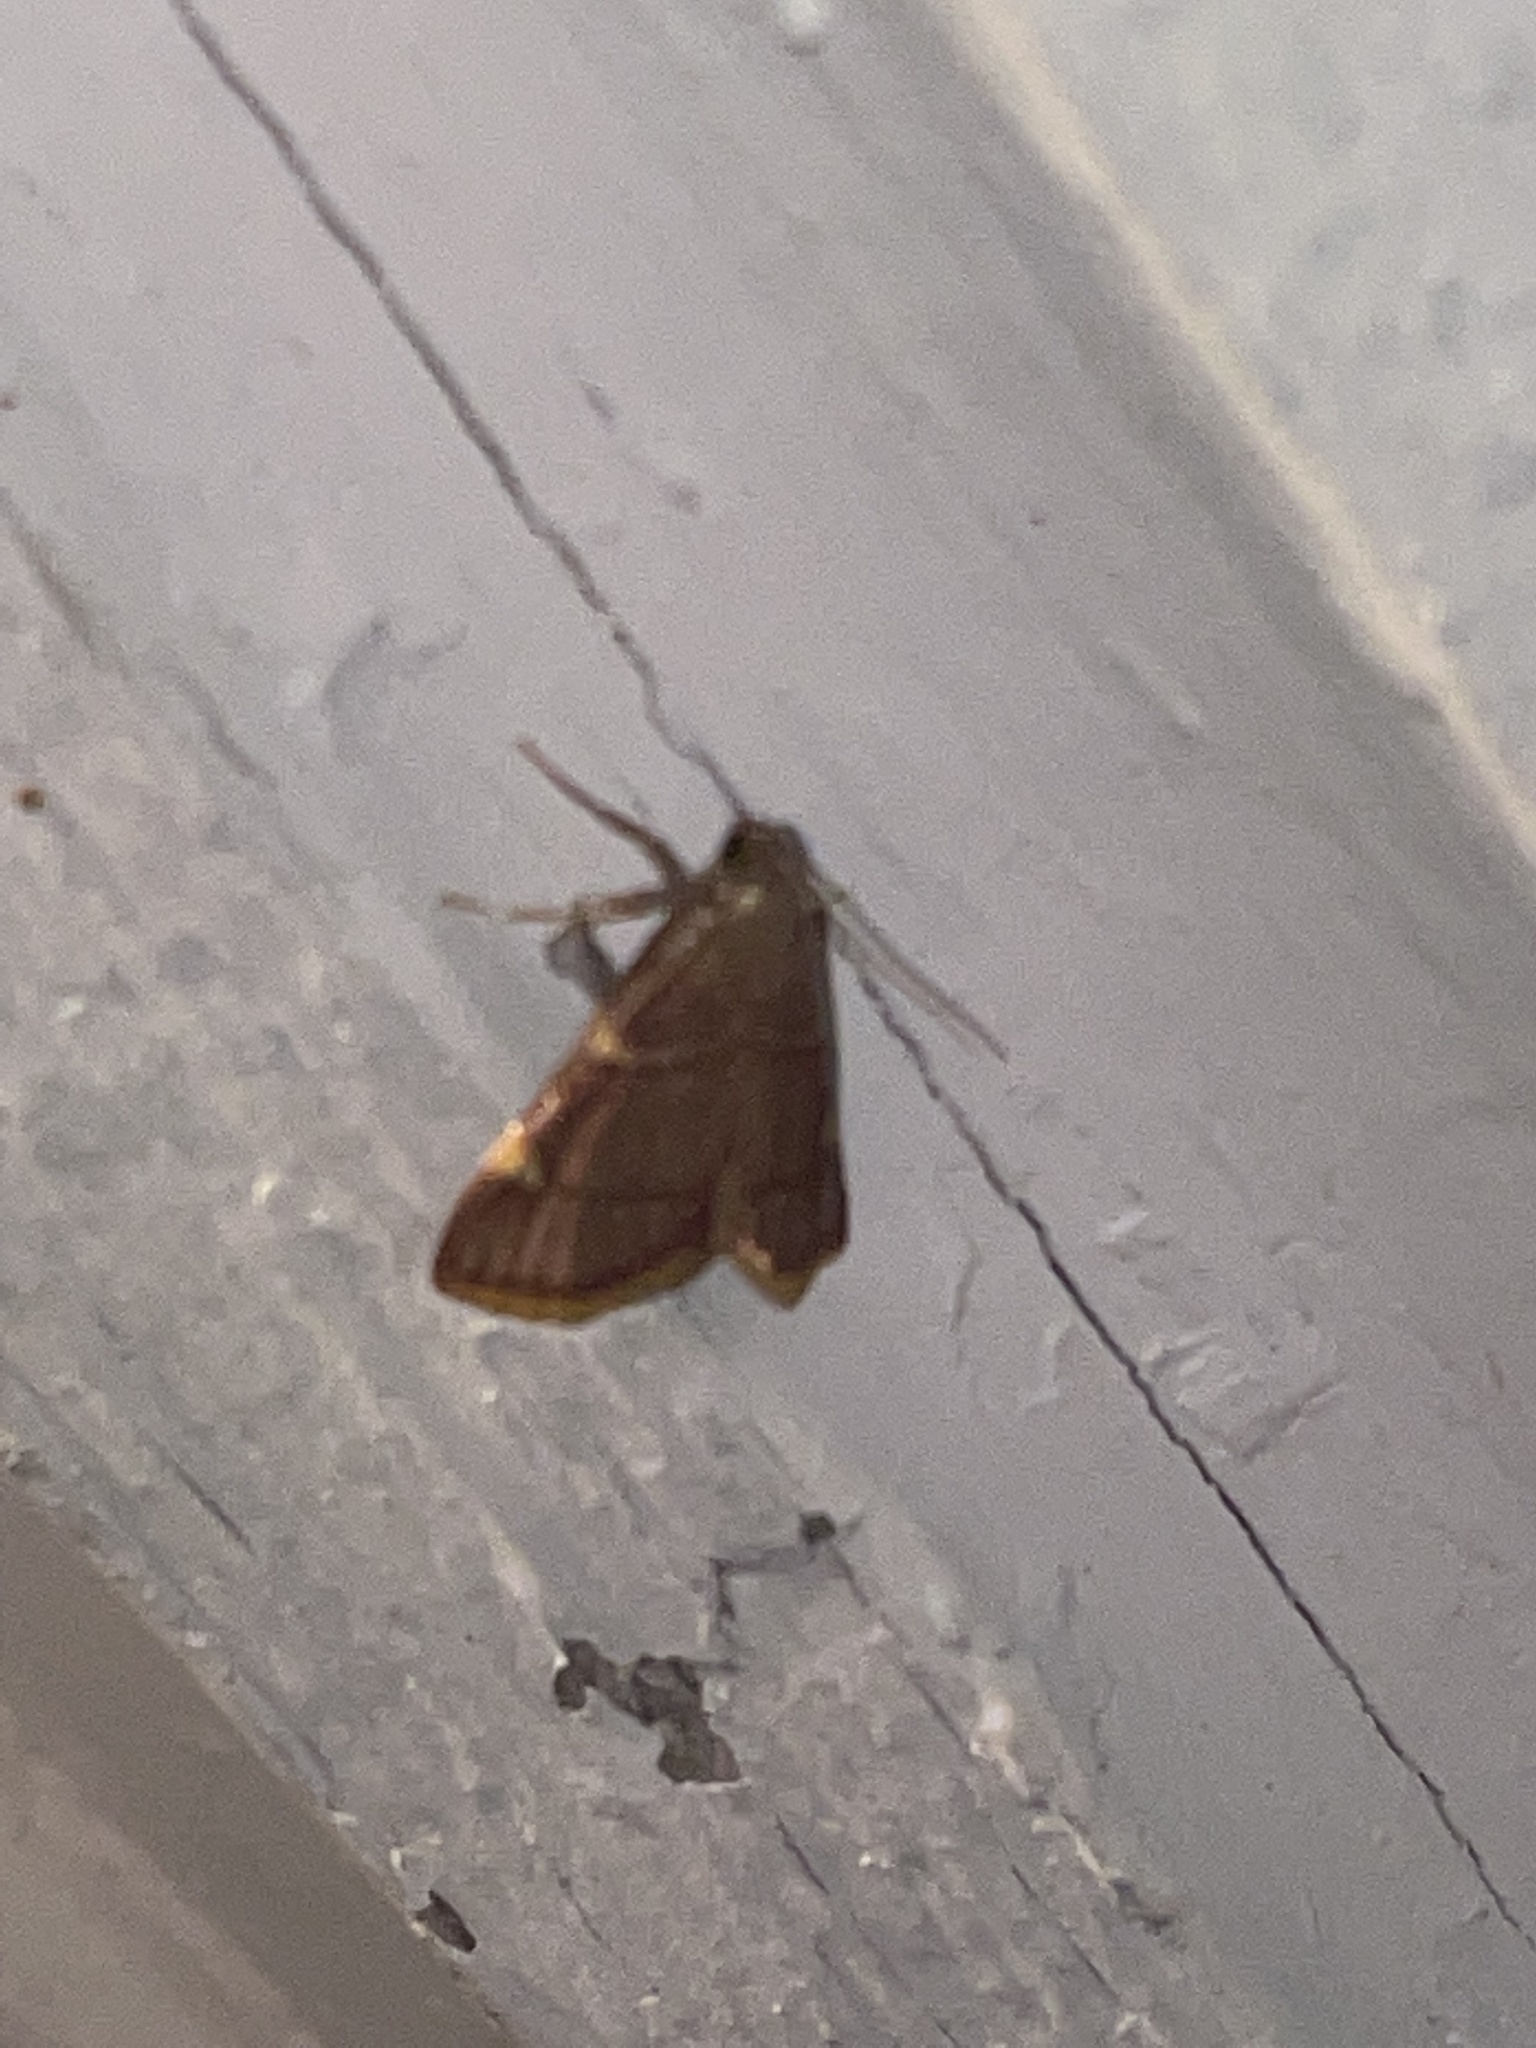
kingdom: Animalia
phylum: Arthropoda
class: Insecta
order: Lepidoptera
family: Pyralidae
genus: Hypsopygia
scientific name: Hypsopygia olinalis
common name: Yellow-fringed dolichomia moth
